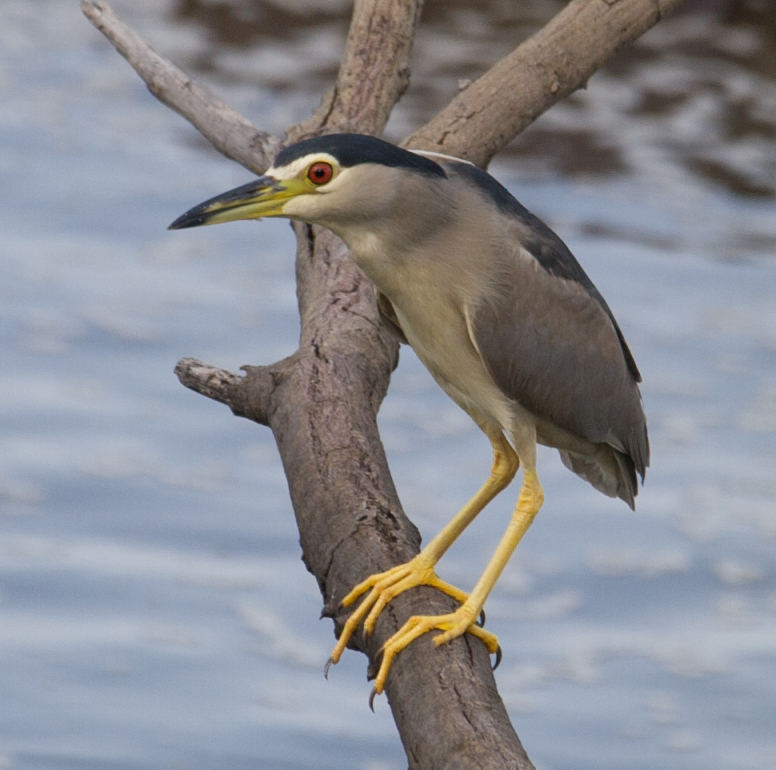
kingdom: Animalia
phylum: Chordata
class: Aves
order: Pelecaniformes
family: Ardeidae
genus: Nycticorax
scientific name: Nycticorax nycticorax
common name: Black-crowned night heron
